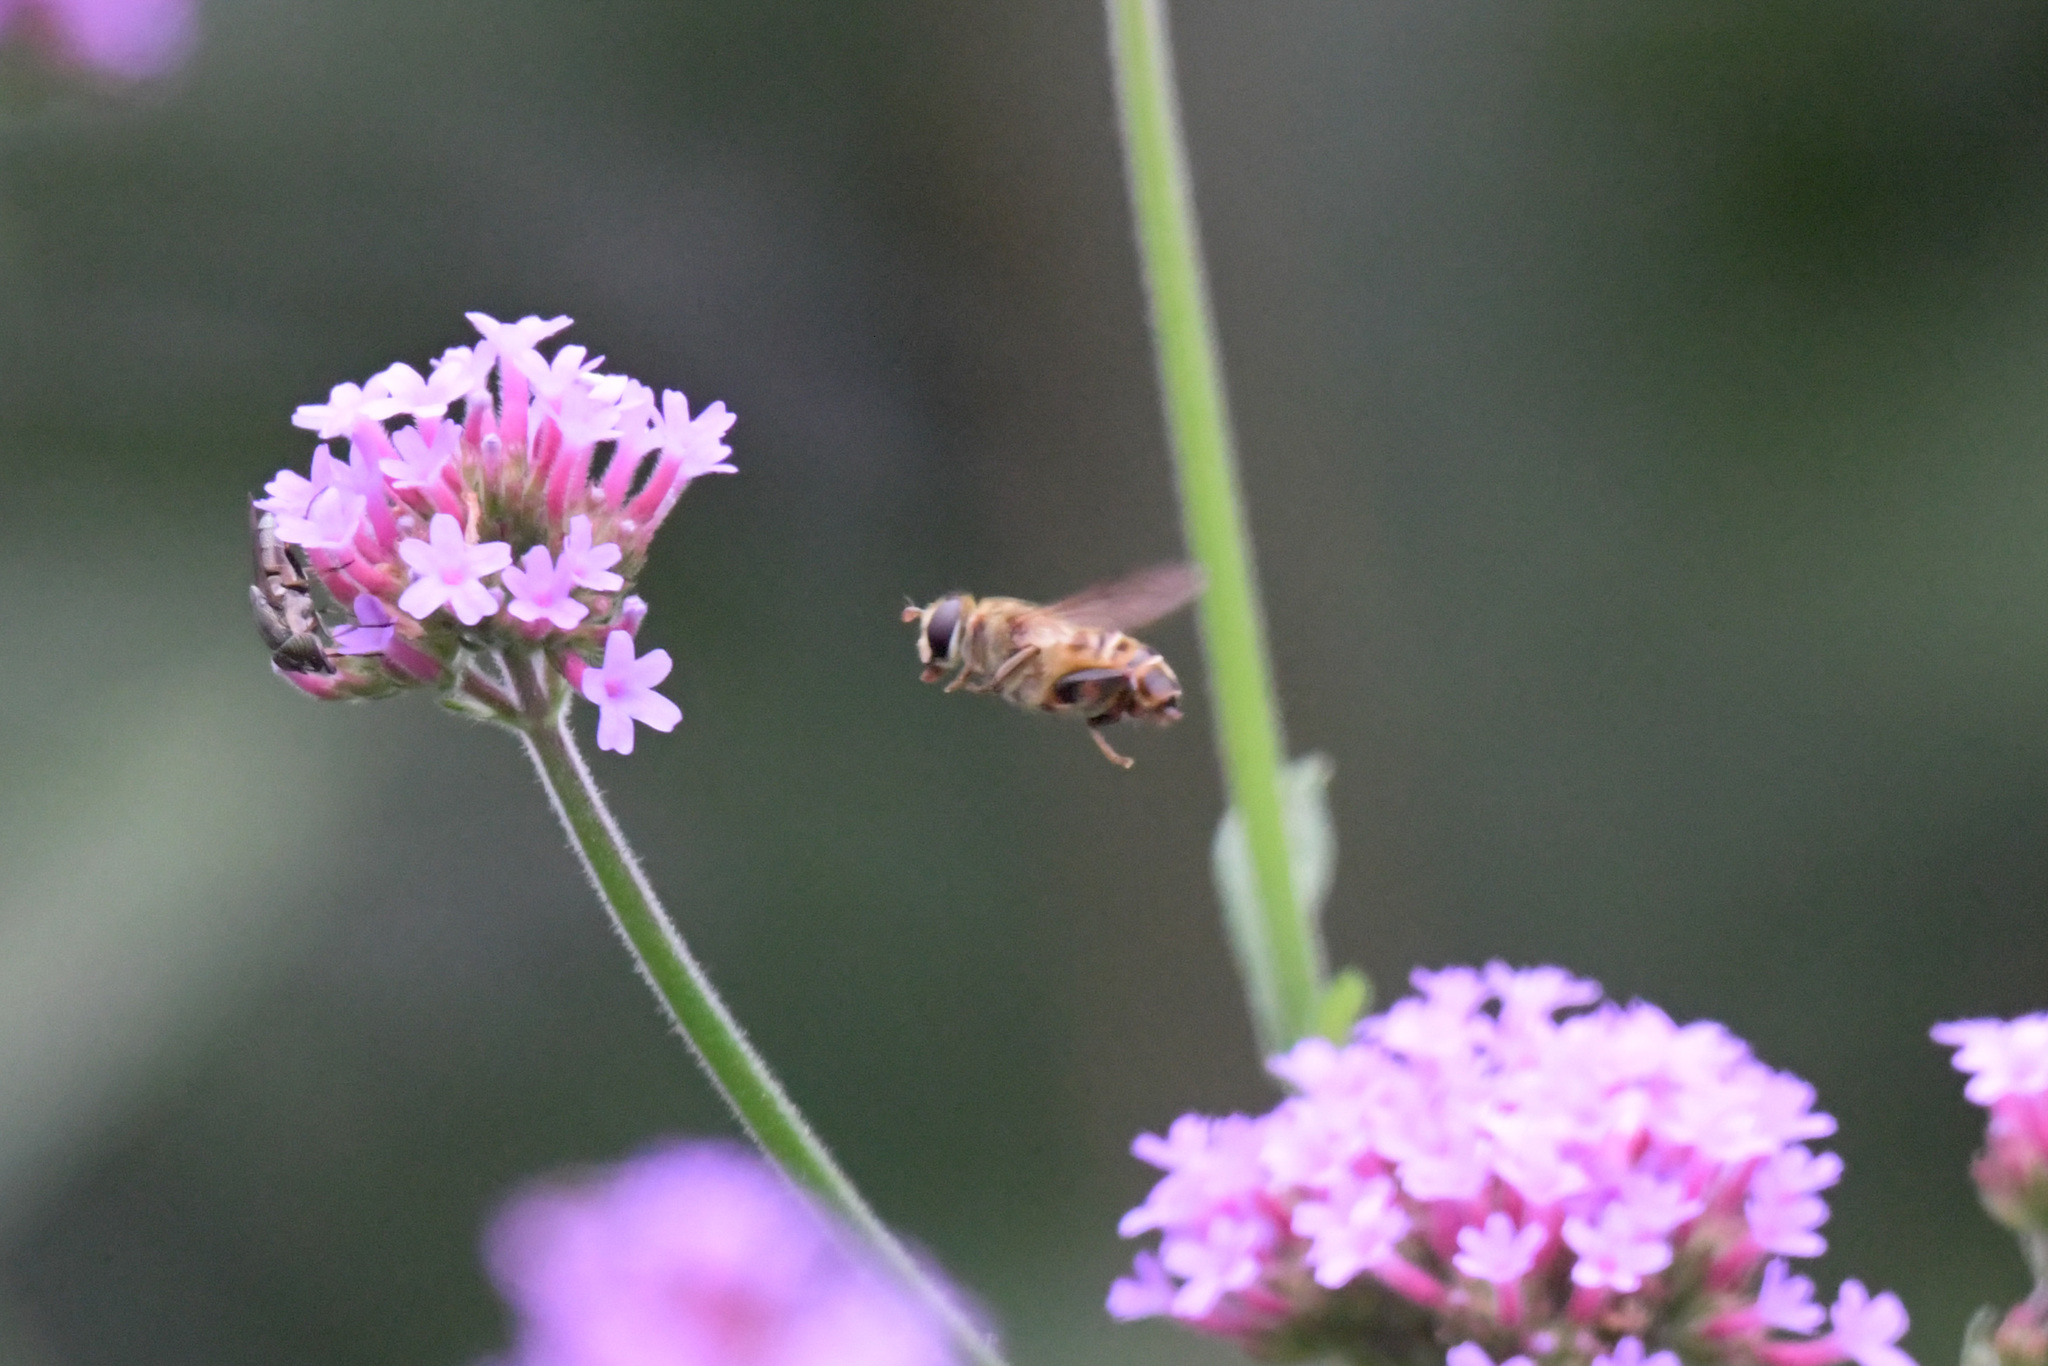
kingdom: Animalia
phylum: Arthropoda
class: Insecta
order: Diptera
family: Syrphidae
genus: Tigridemyia
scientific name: Tigridemyia curvigaster
